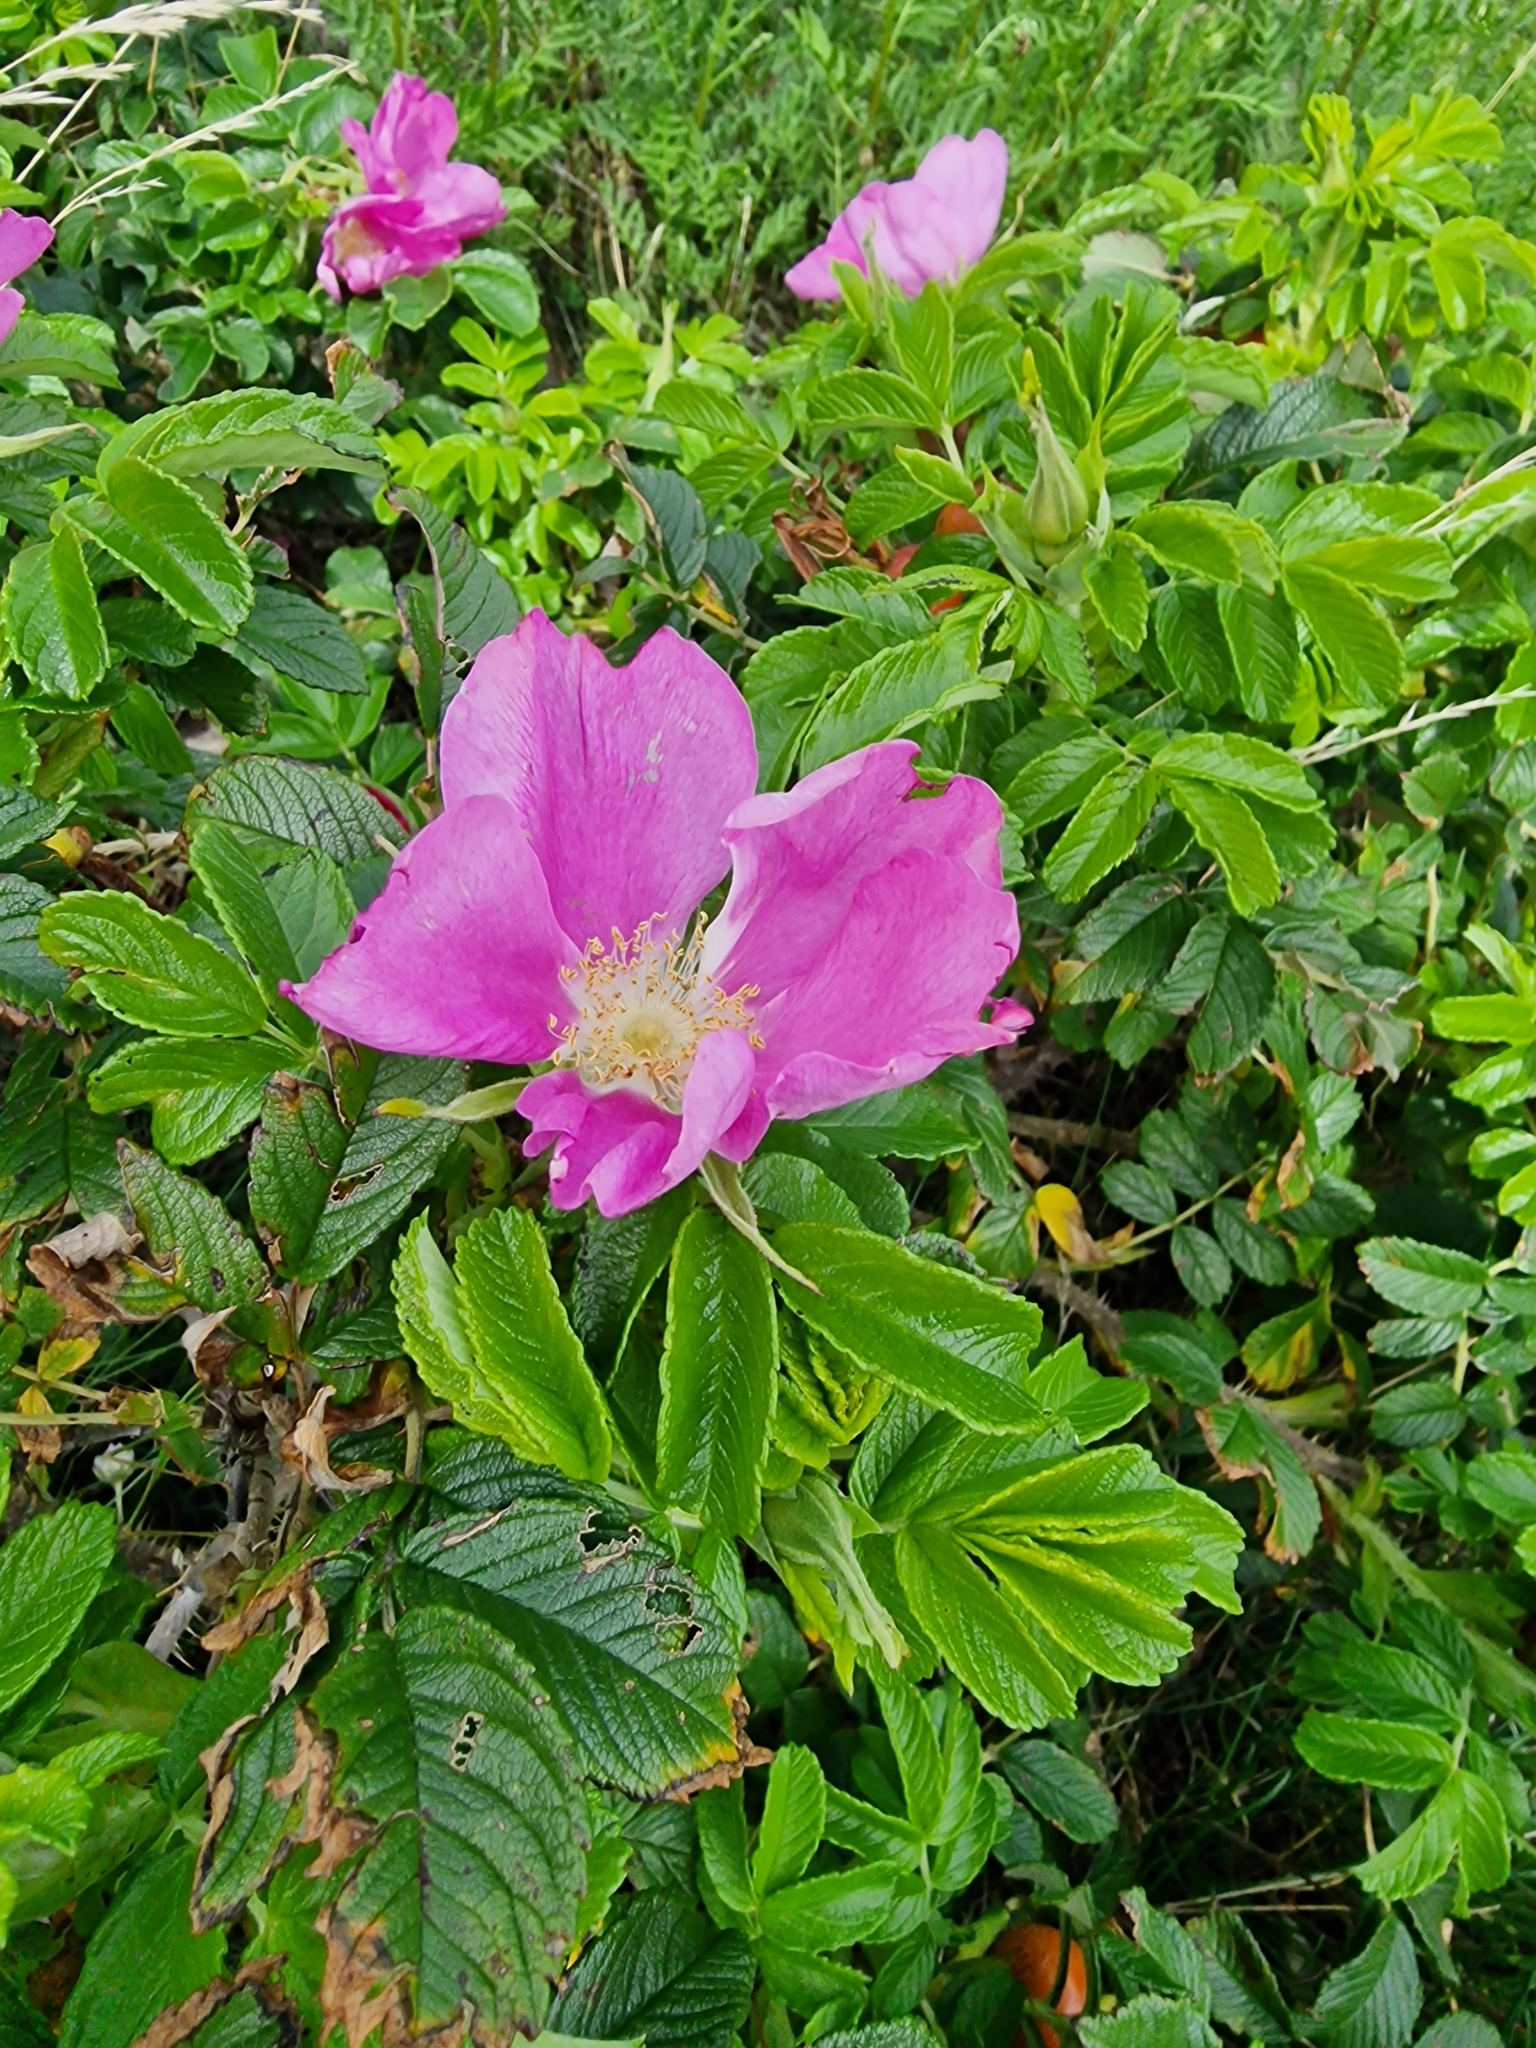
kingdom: Plantae
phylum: Tracheophyta
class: Magnoliopsida
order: Rosales
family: Rosaceae
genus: Rosa
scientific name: Rosa rugosa
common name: Japanese rose
